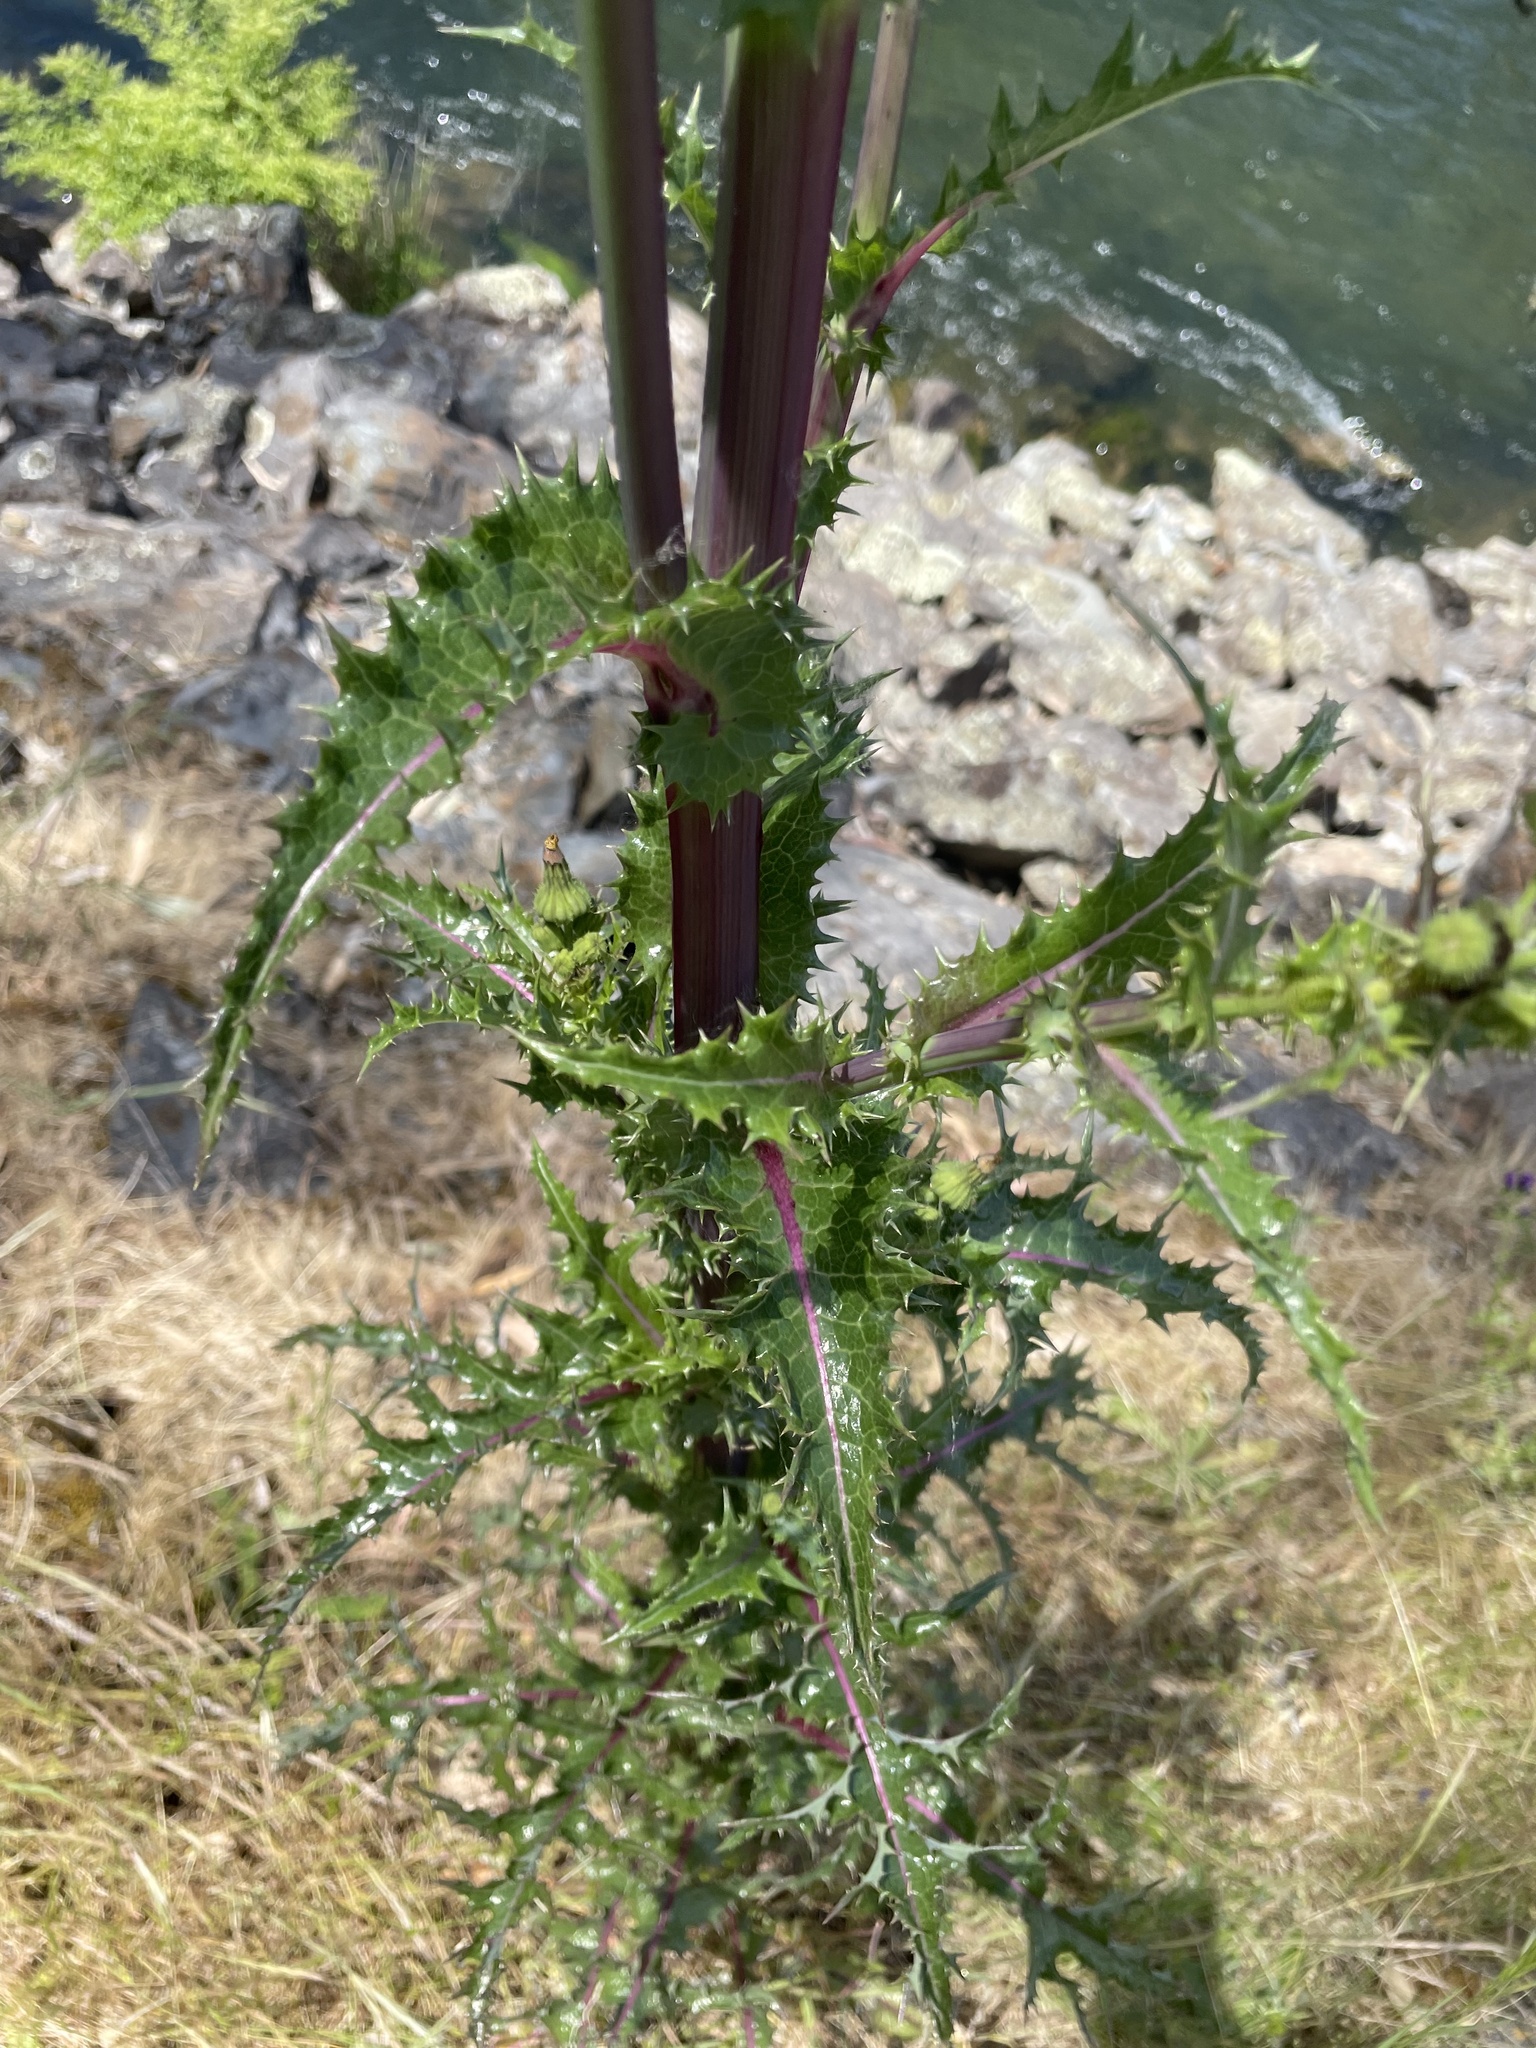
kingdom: Plantae
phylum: Tracheophyta
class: Magnoliopsida
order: Asterales
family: Asteraceae
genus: Sonchus
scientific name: Sonchus asper
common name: Prickly sow-thistle
